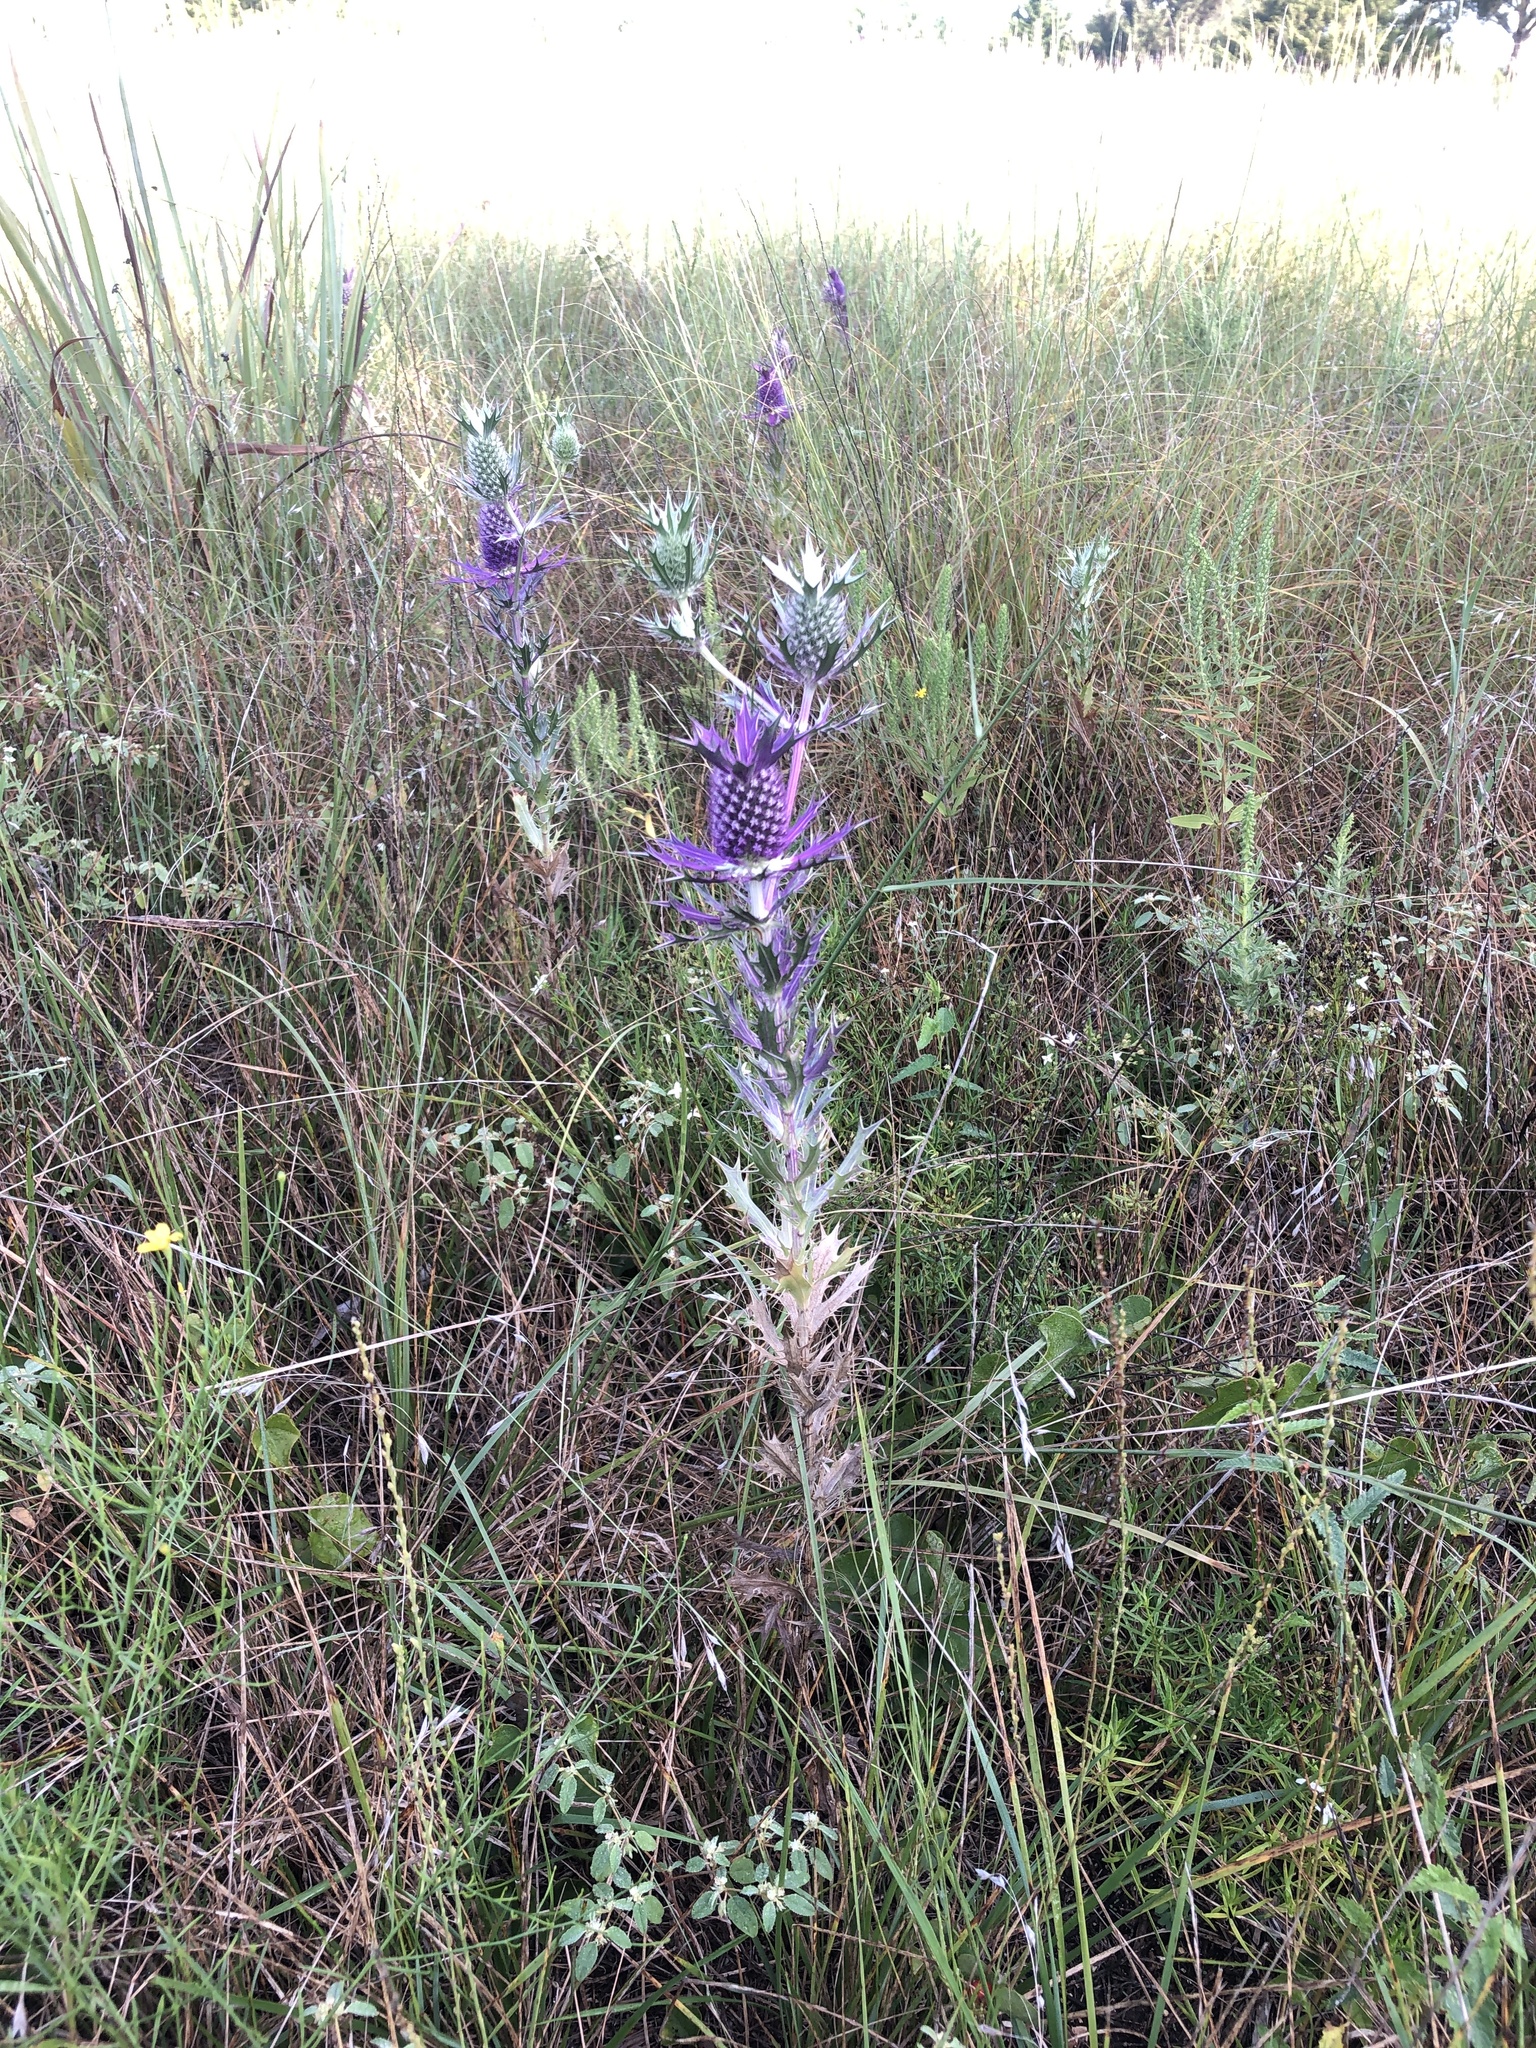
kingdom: Plantae
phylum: Tracheophyta
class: Magnoliopsida
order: Apiales
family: Apiaceae
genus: Eryngium
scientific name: Eryngium leavenworthii
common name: Leavenworth's eryngo
